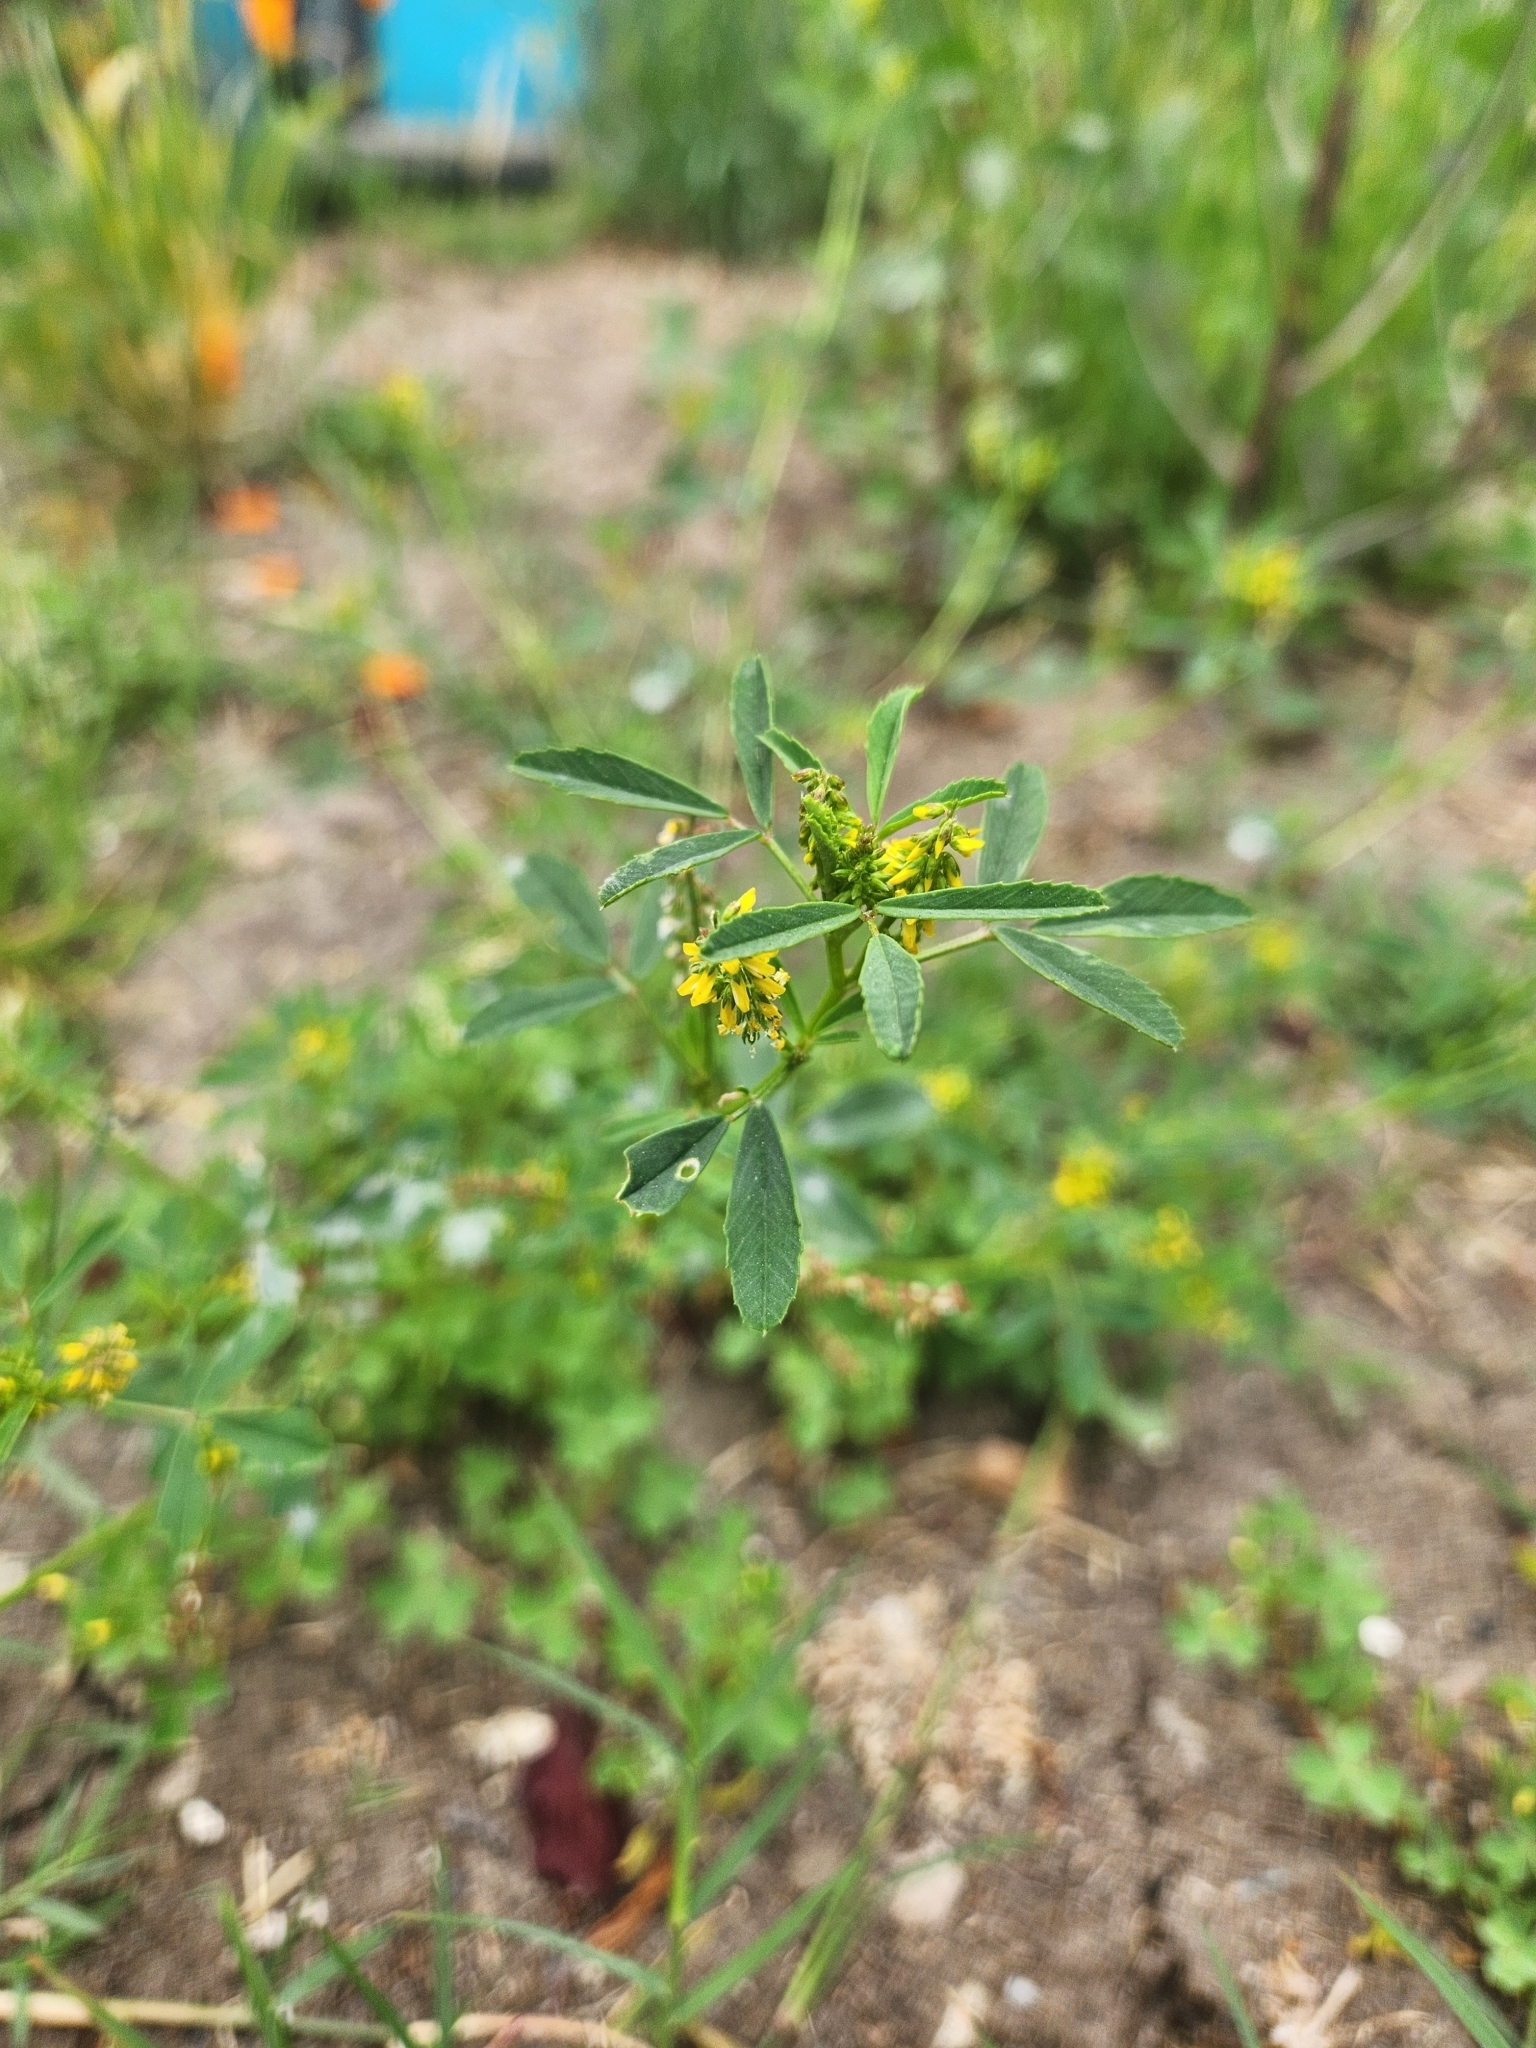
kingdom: Plantae
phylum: Tracheophyta
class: Magnoliopsida
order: Fabales
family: Fabaceae
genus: Melilotus
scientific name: Melilotus indicus
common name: Small melilot
